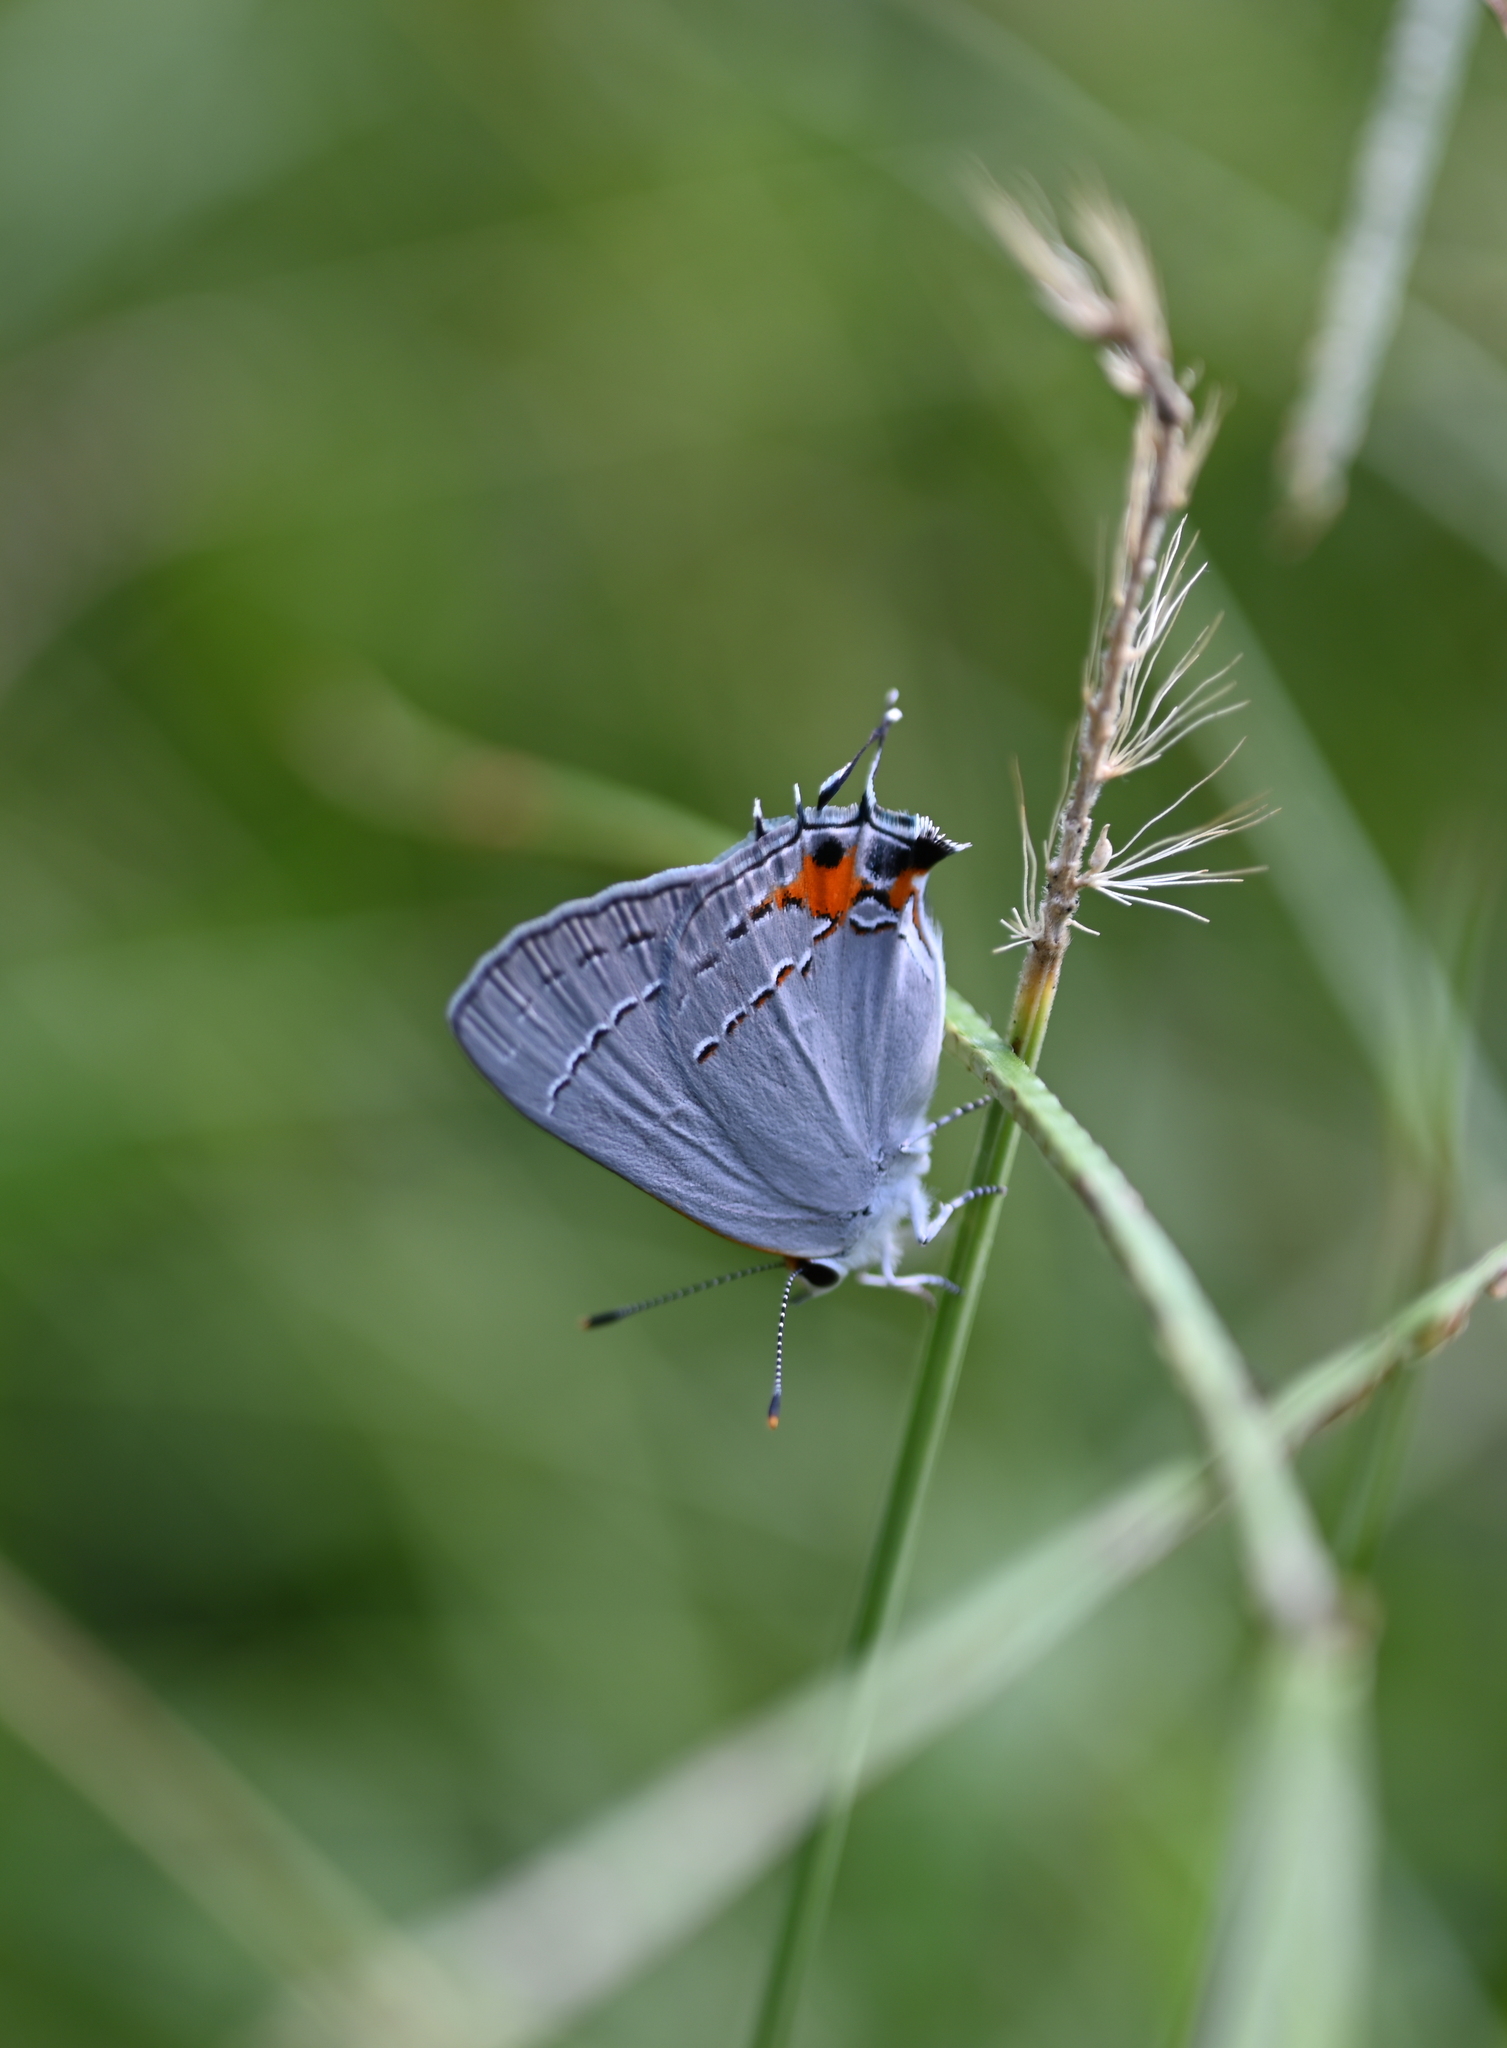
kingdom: Animalia
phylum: Arthropoda
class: Insecta
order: Lepidoptera
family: Lycaenidae
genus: Strymon
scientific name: Strymon melinus
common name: Gray hairstreak
